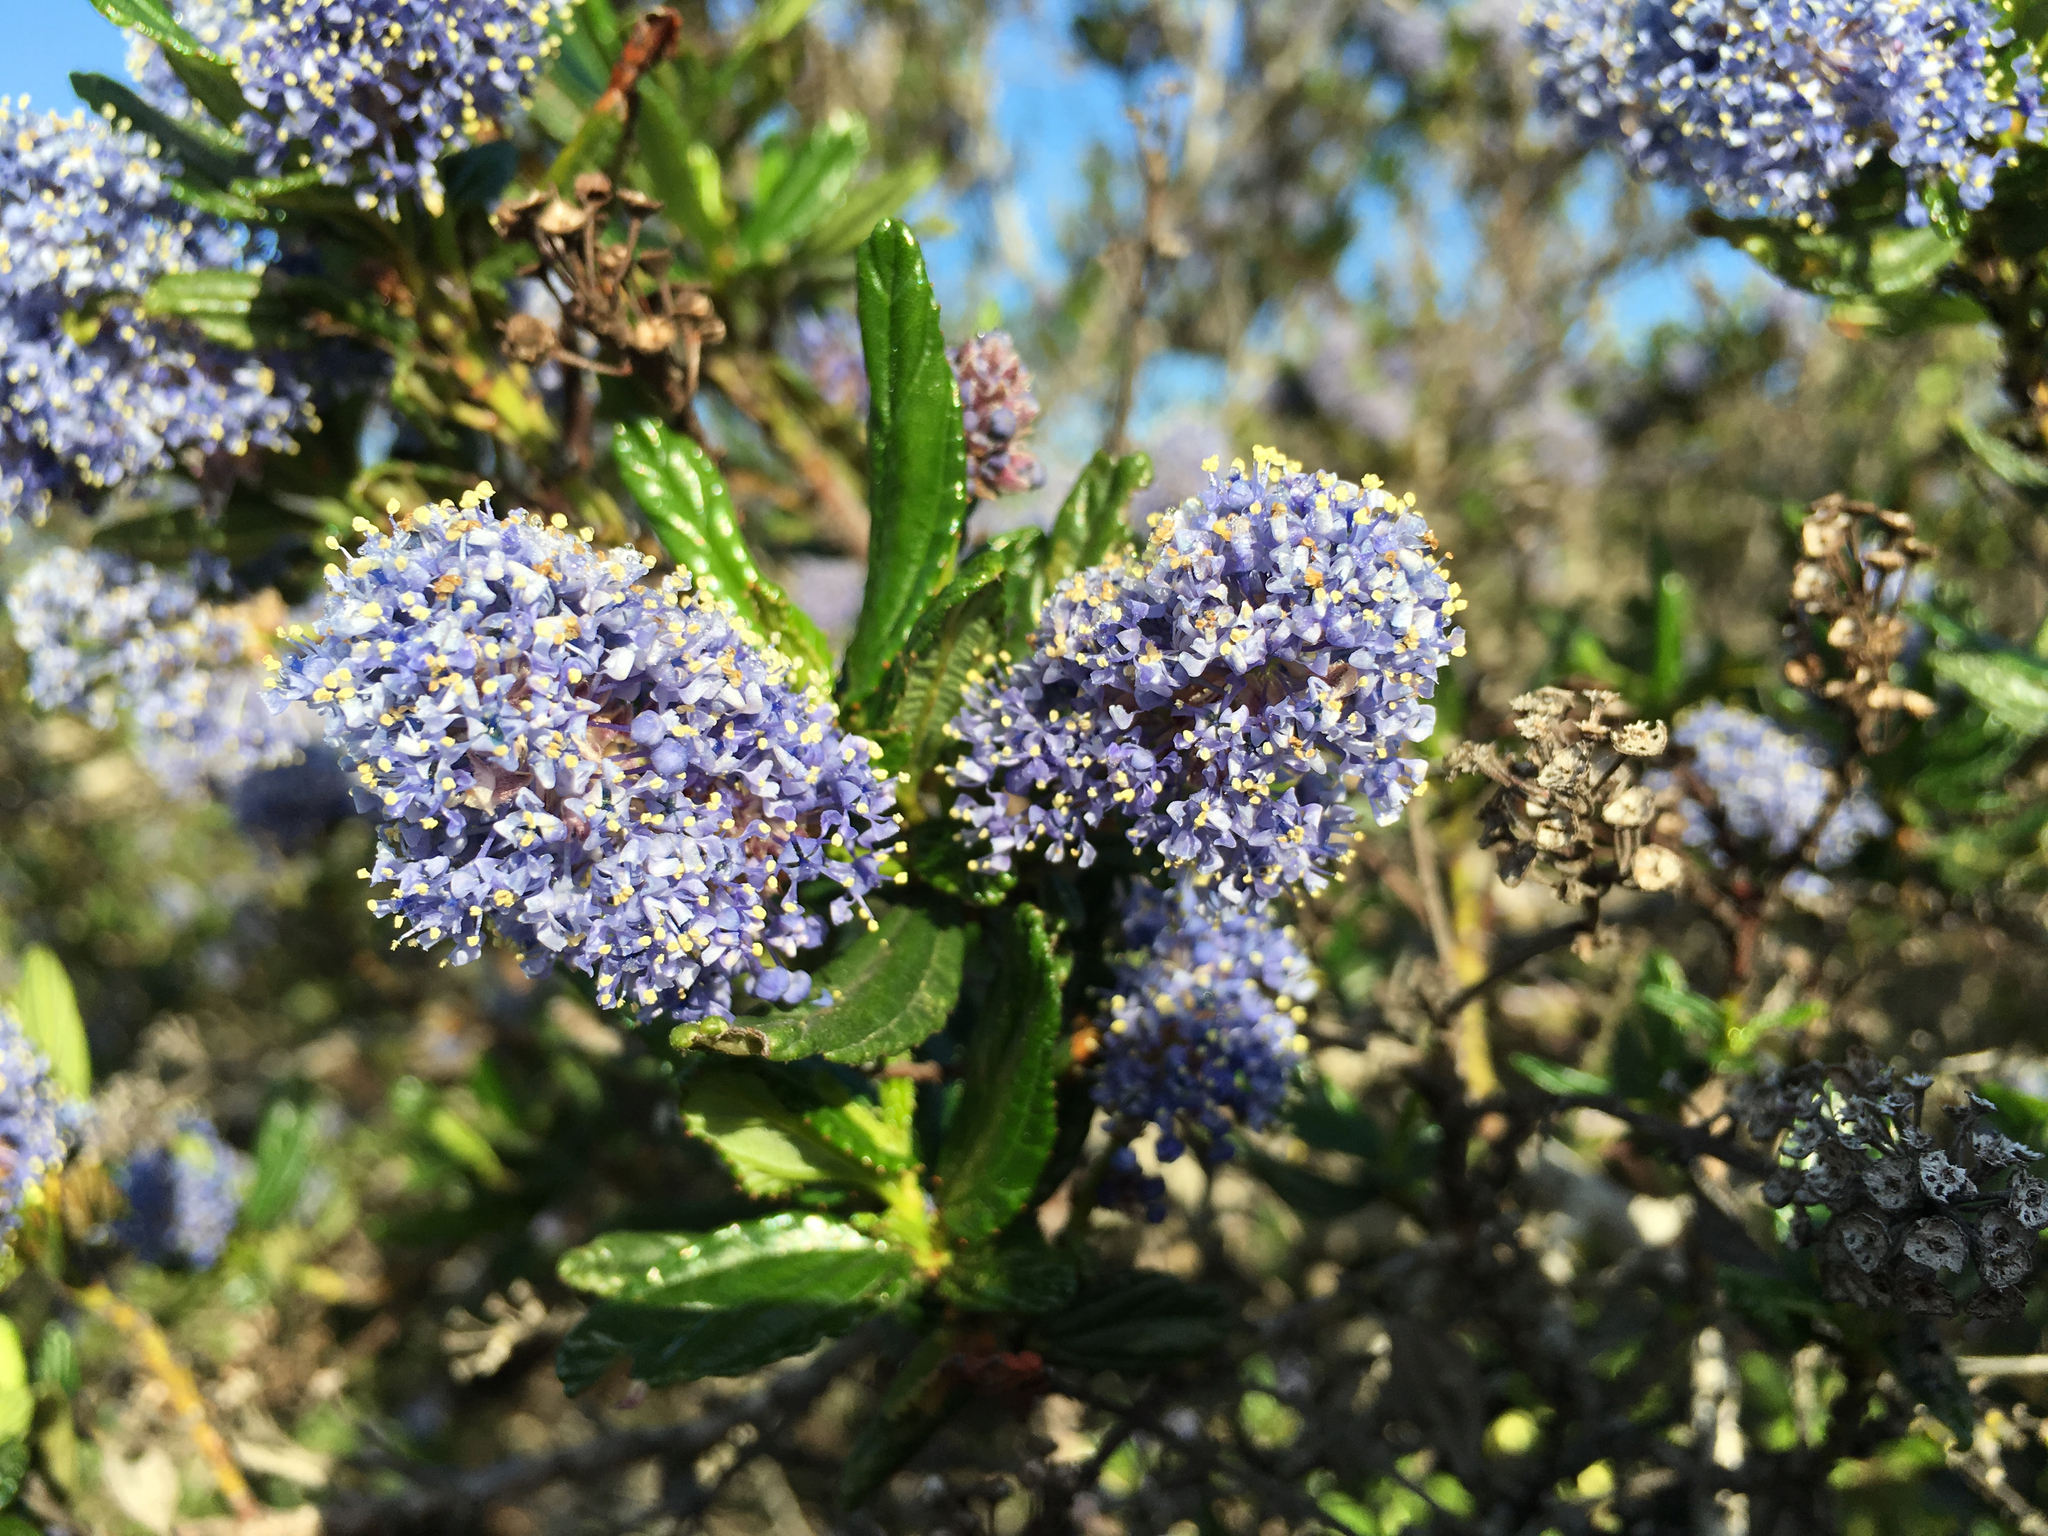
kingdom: Plantae
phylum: Tracheophyta
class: Magnoliopsida
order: Rosales
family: Rhamnaceae
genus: Ceanothus
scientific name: Ceanothus thyrsiflorus
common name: California-lilac
